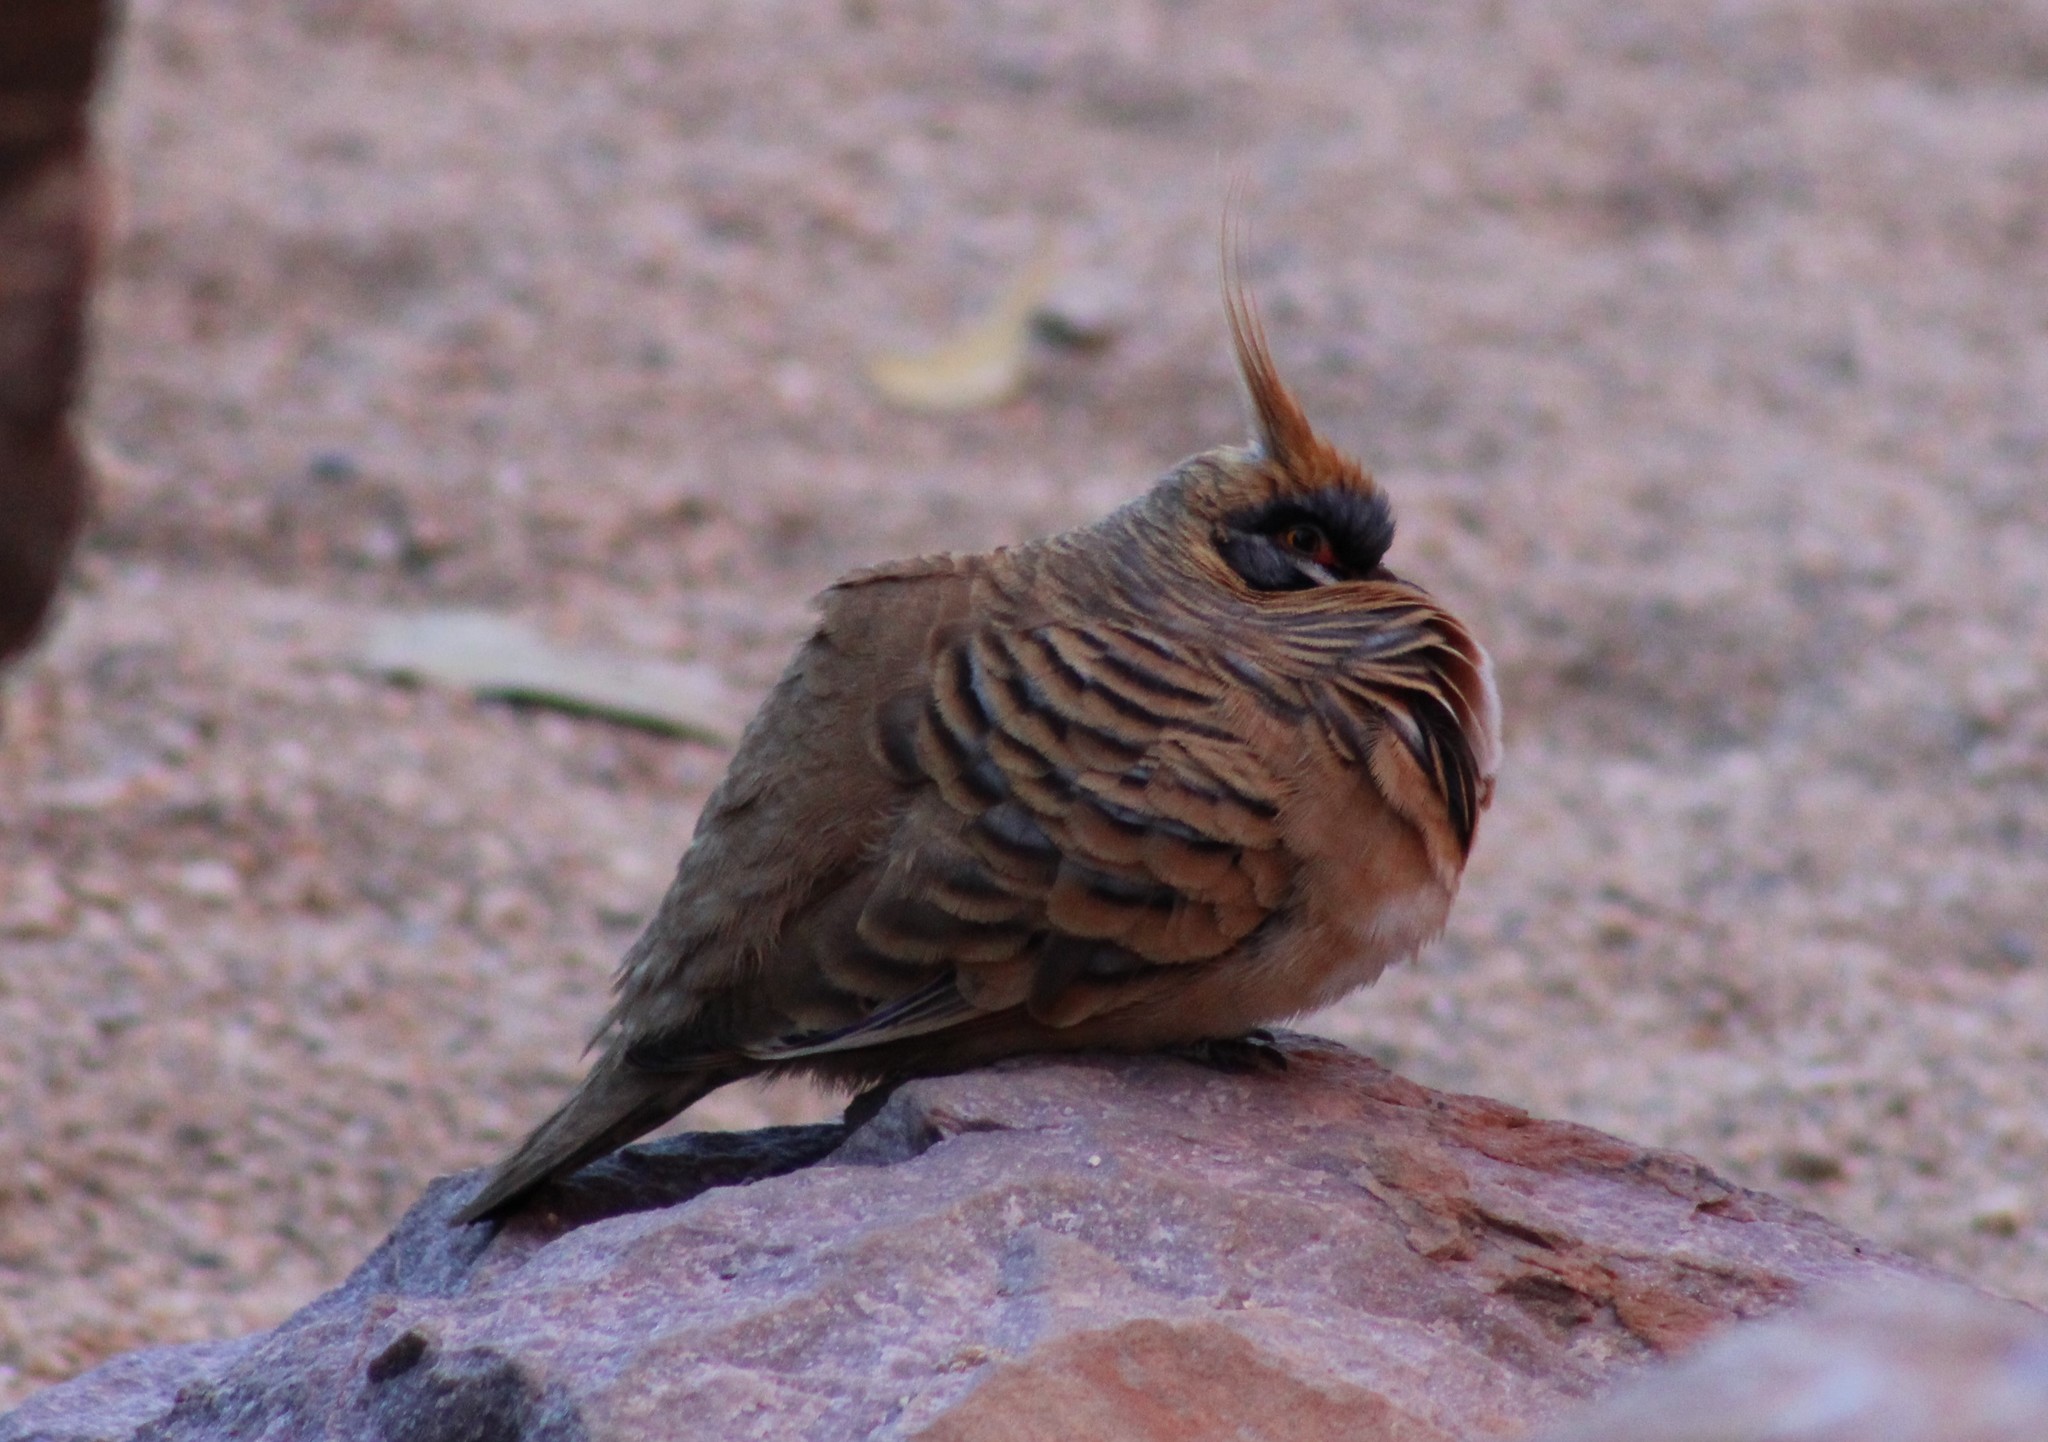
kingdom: Animalia
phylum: Chordata
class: Aves
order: Columbiformes
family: Columbidae
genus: Geophaps
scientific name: Geophaps plumifera
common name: Spinifex pigeon
